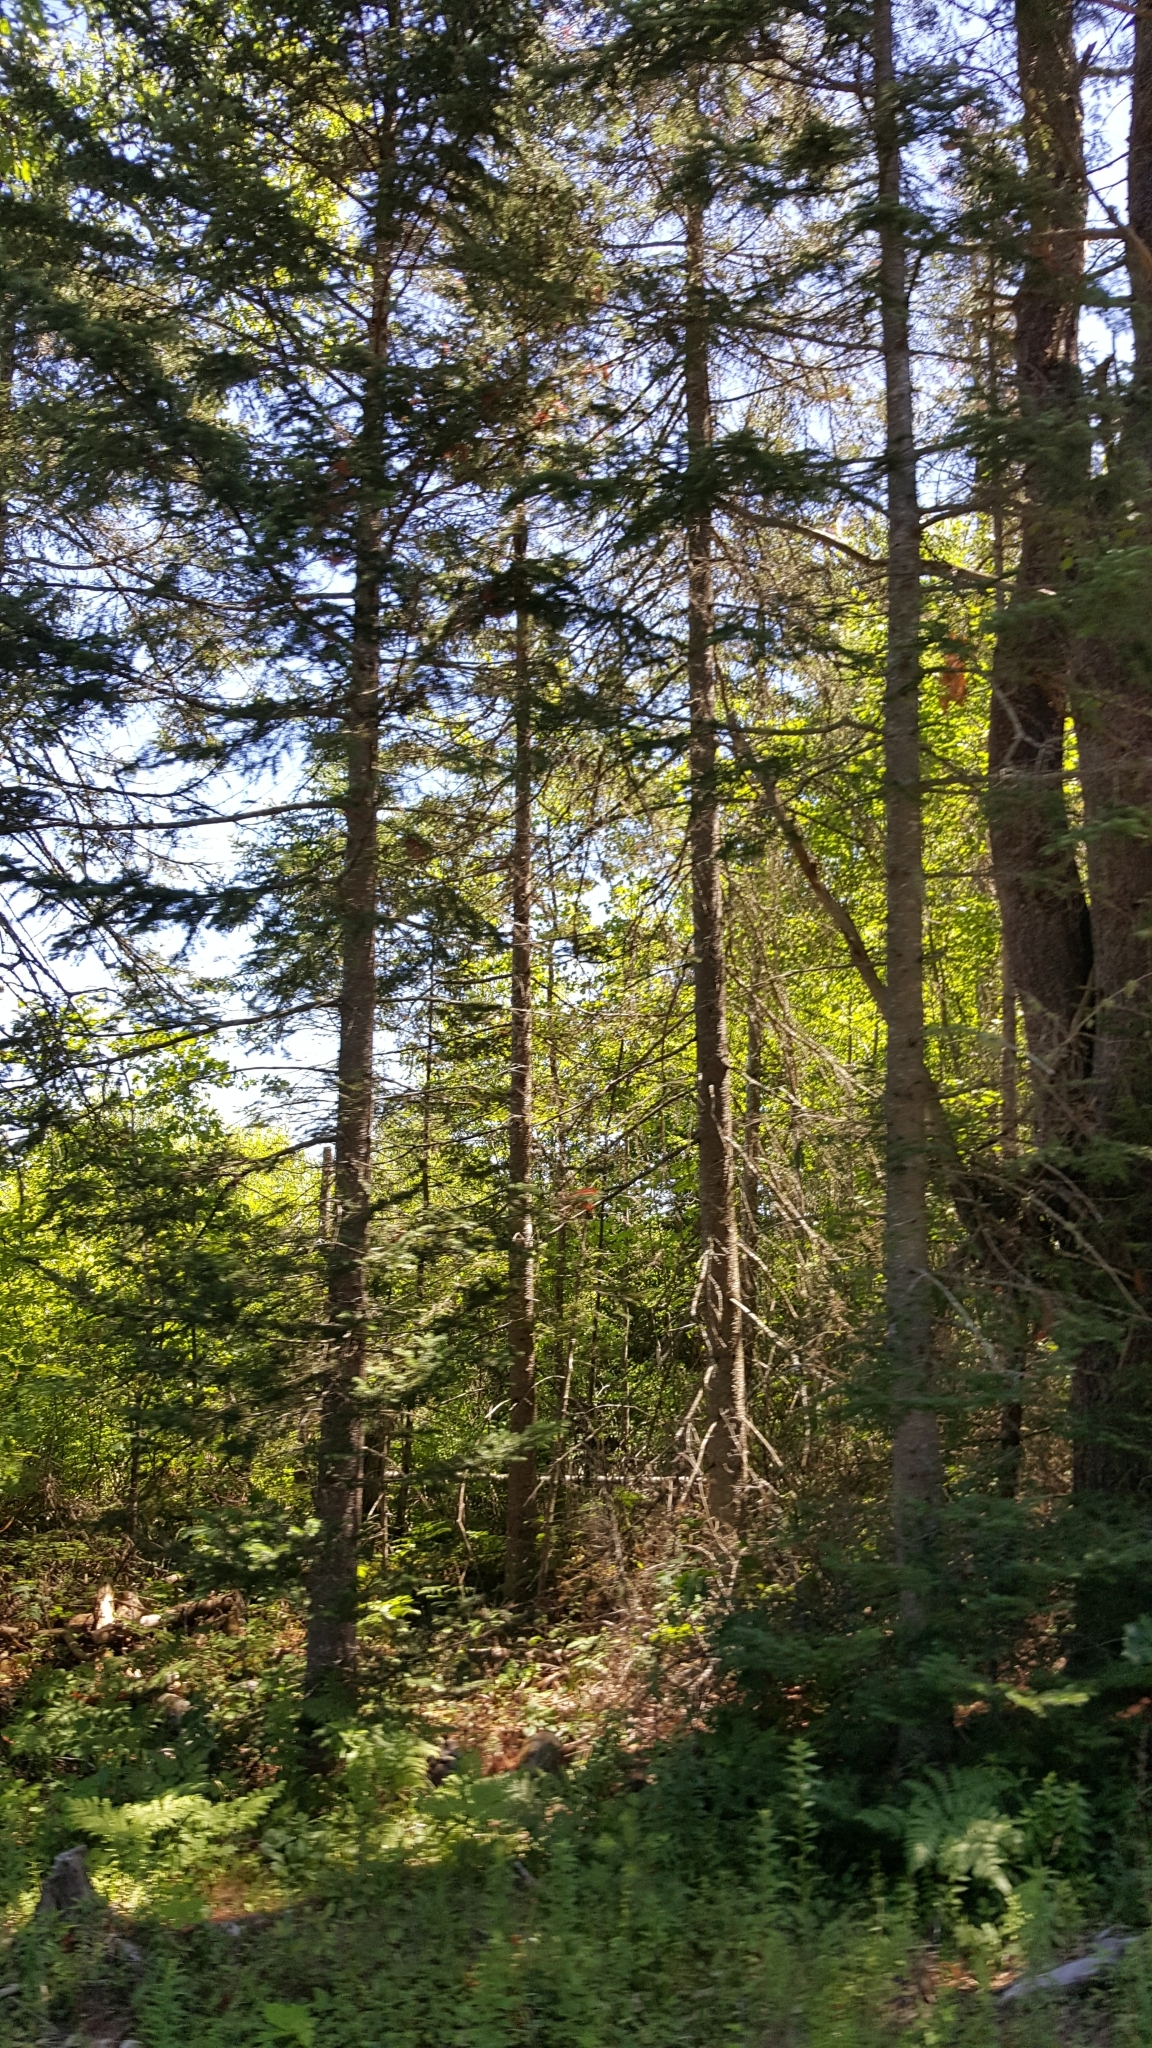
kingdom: Plantae
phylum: Tracheophyta
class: Pinopsida
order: Pinales
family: Pinaceae
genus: Abies
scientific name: Abies balsamea
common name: Balsam fir
